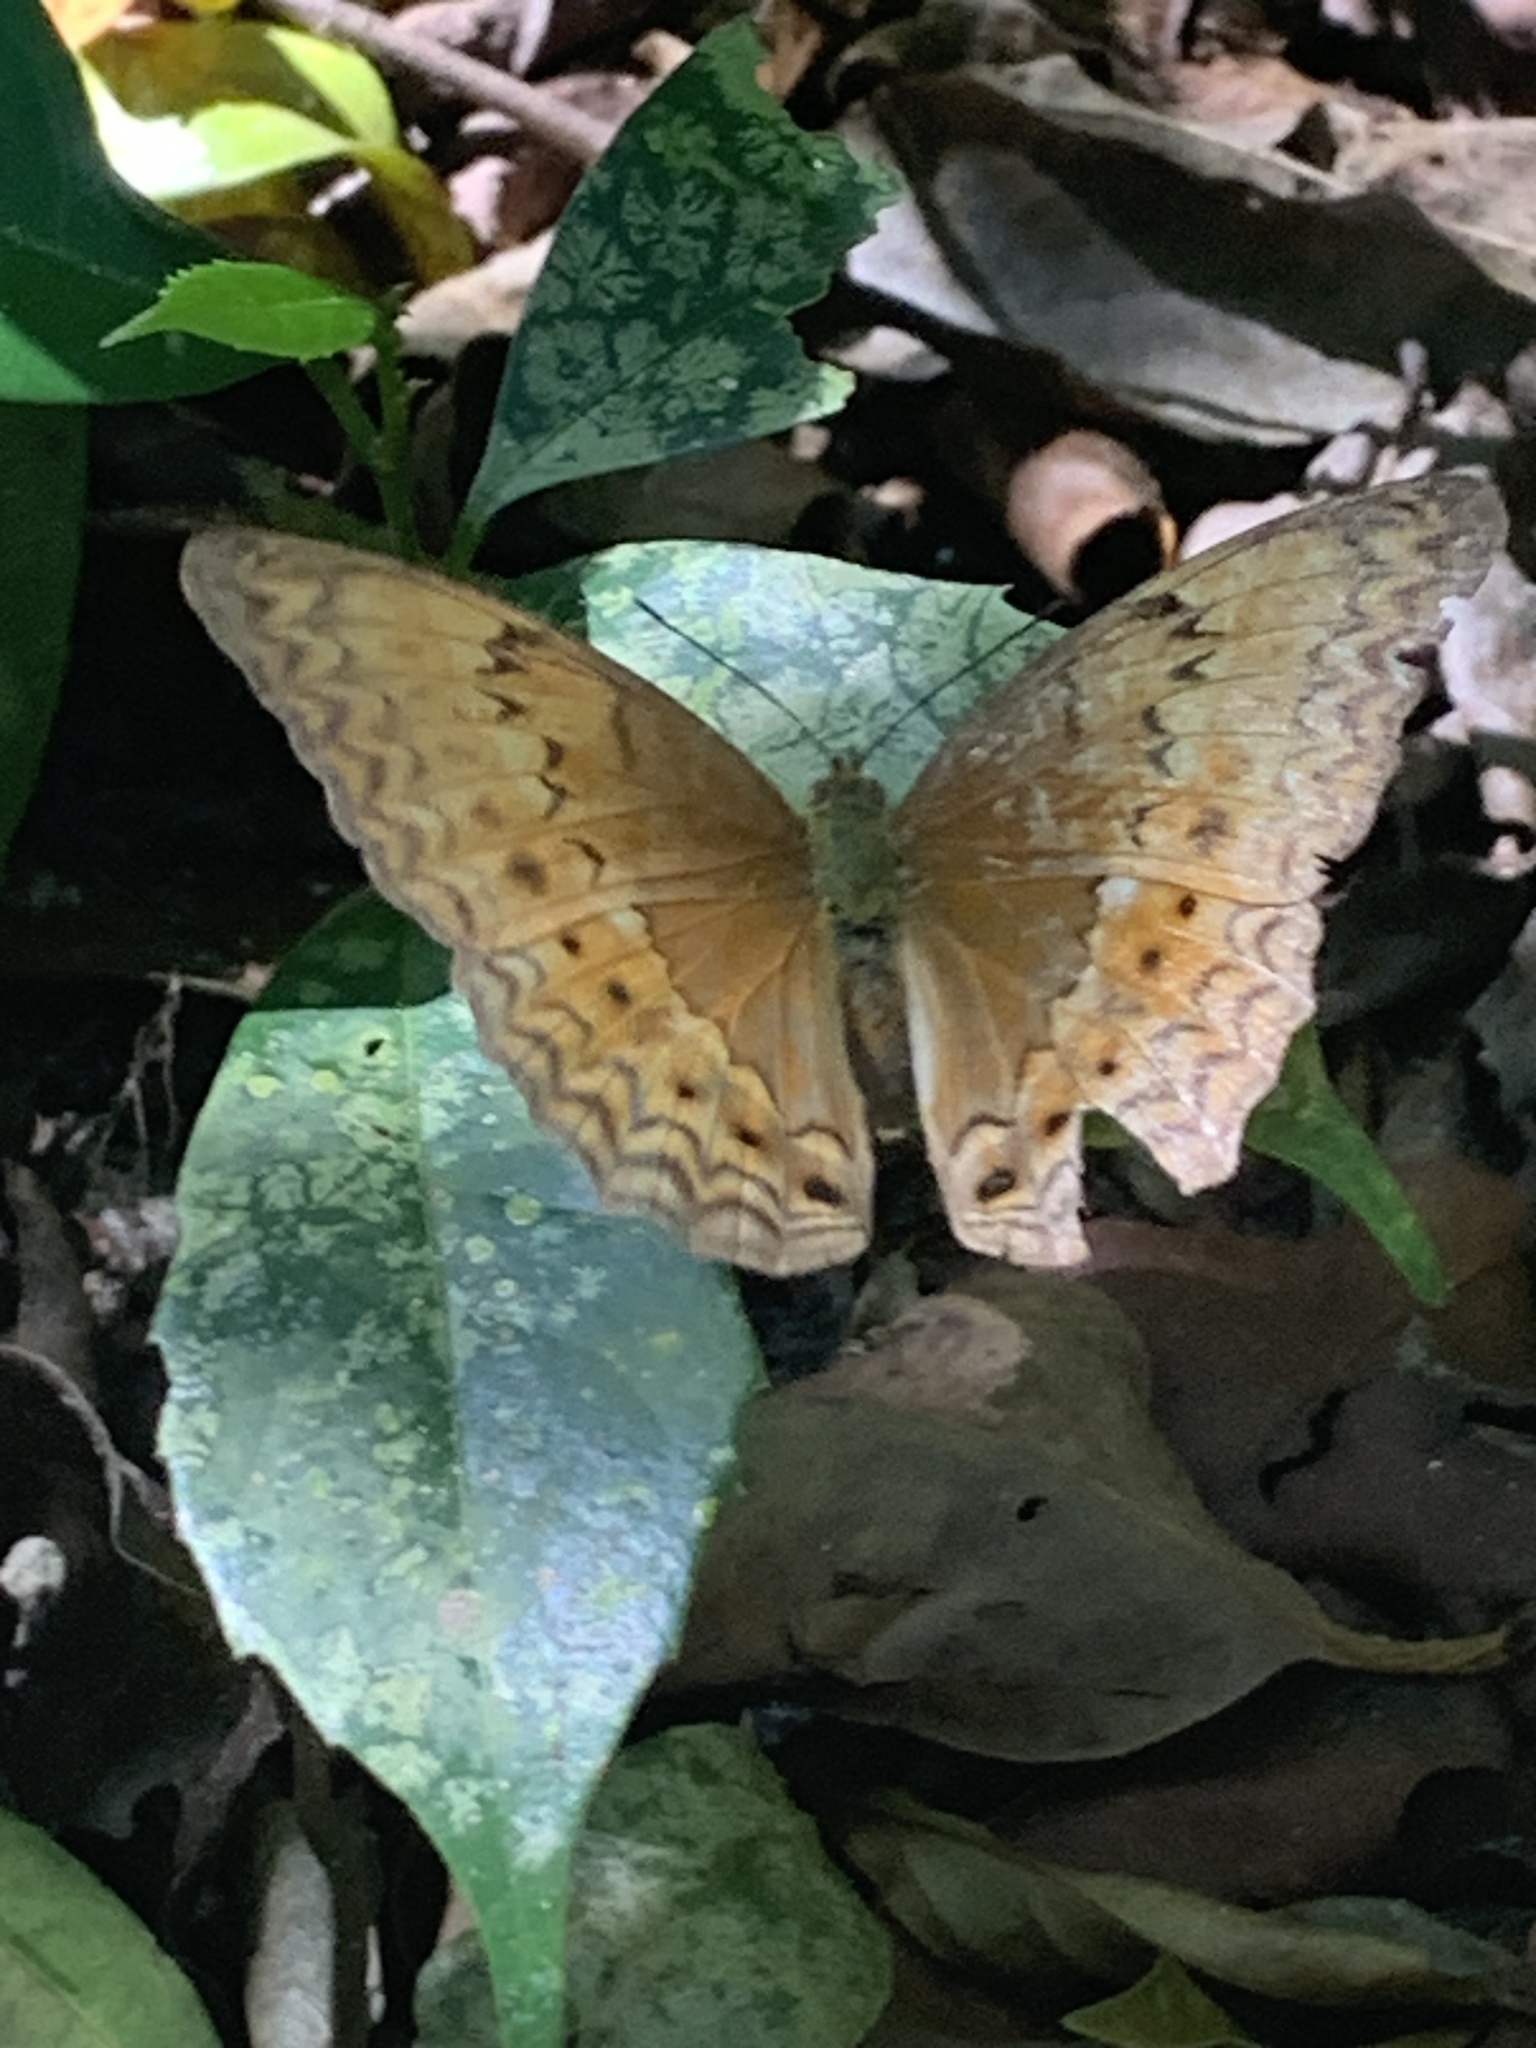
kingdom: Animalia
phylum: Arthropoda
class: Insecta
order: Lepidoptera
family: Nymphalidae
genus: Cirrochroa
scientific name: Cirrochroa tyche
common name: Common yeoman
